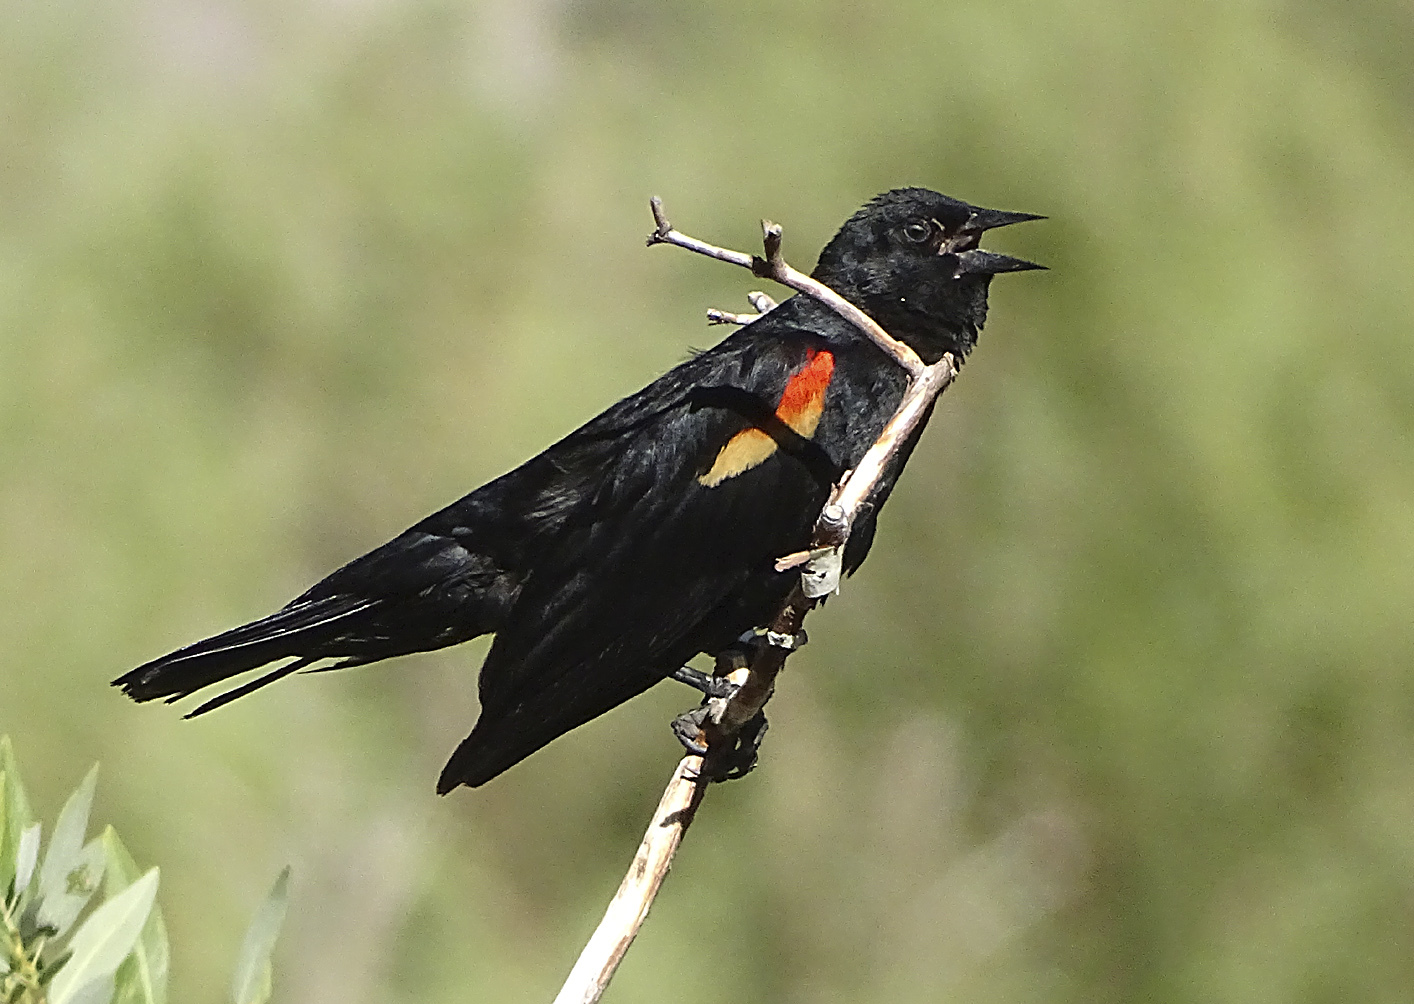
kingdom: Animalia
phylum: Chordata
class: Aves
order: Passeriformes
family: Icteridae
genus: Agelaius
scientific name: Agelaius phoeniceus
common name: Red-winged blackbird
